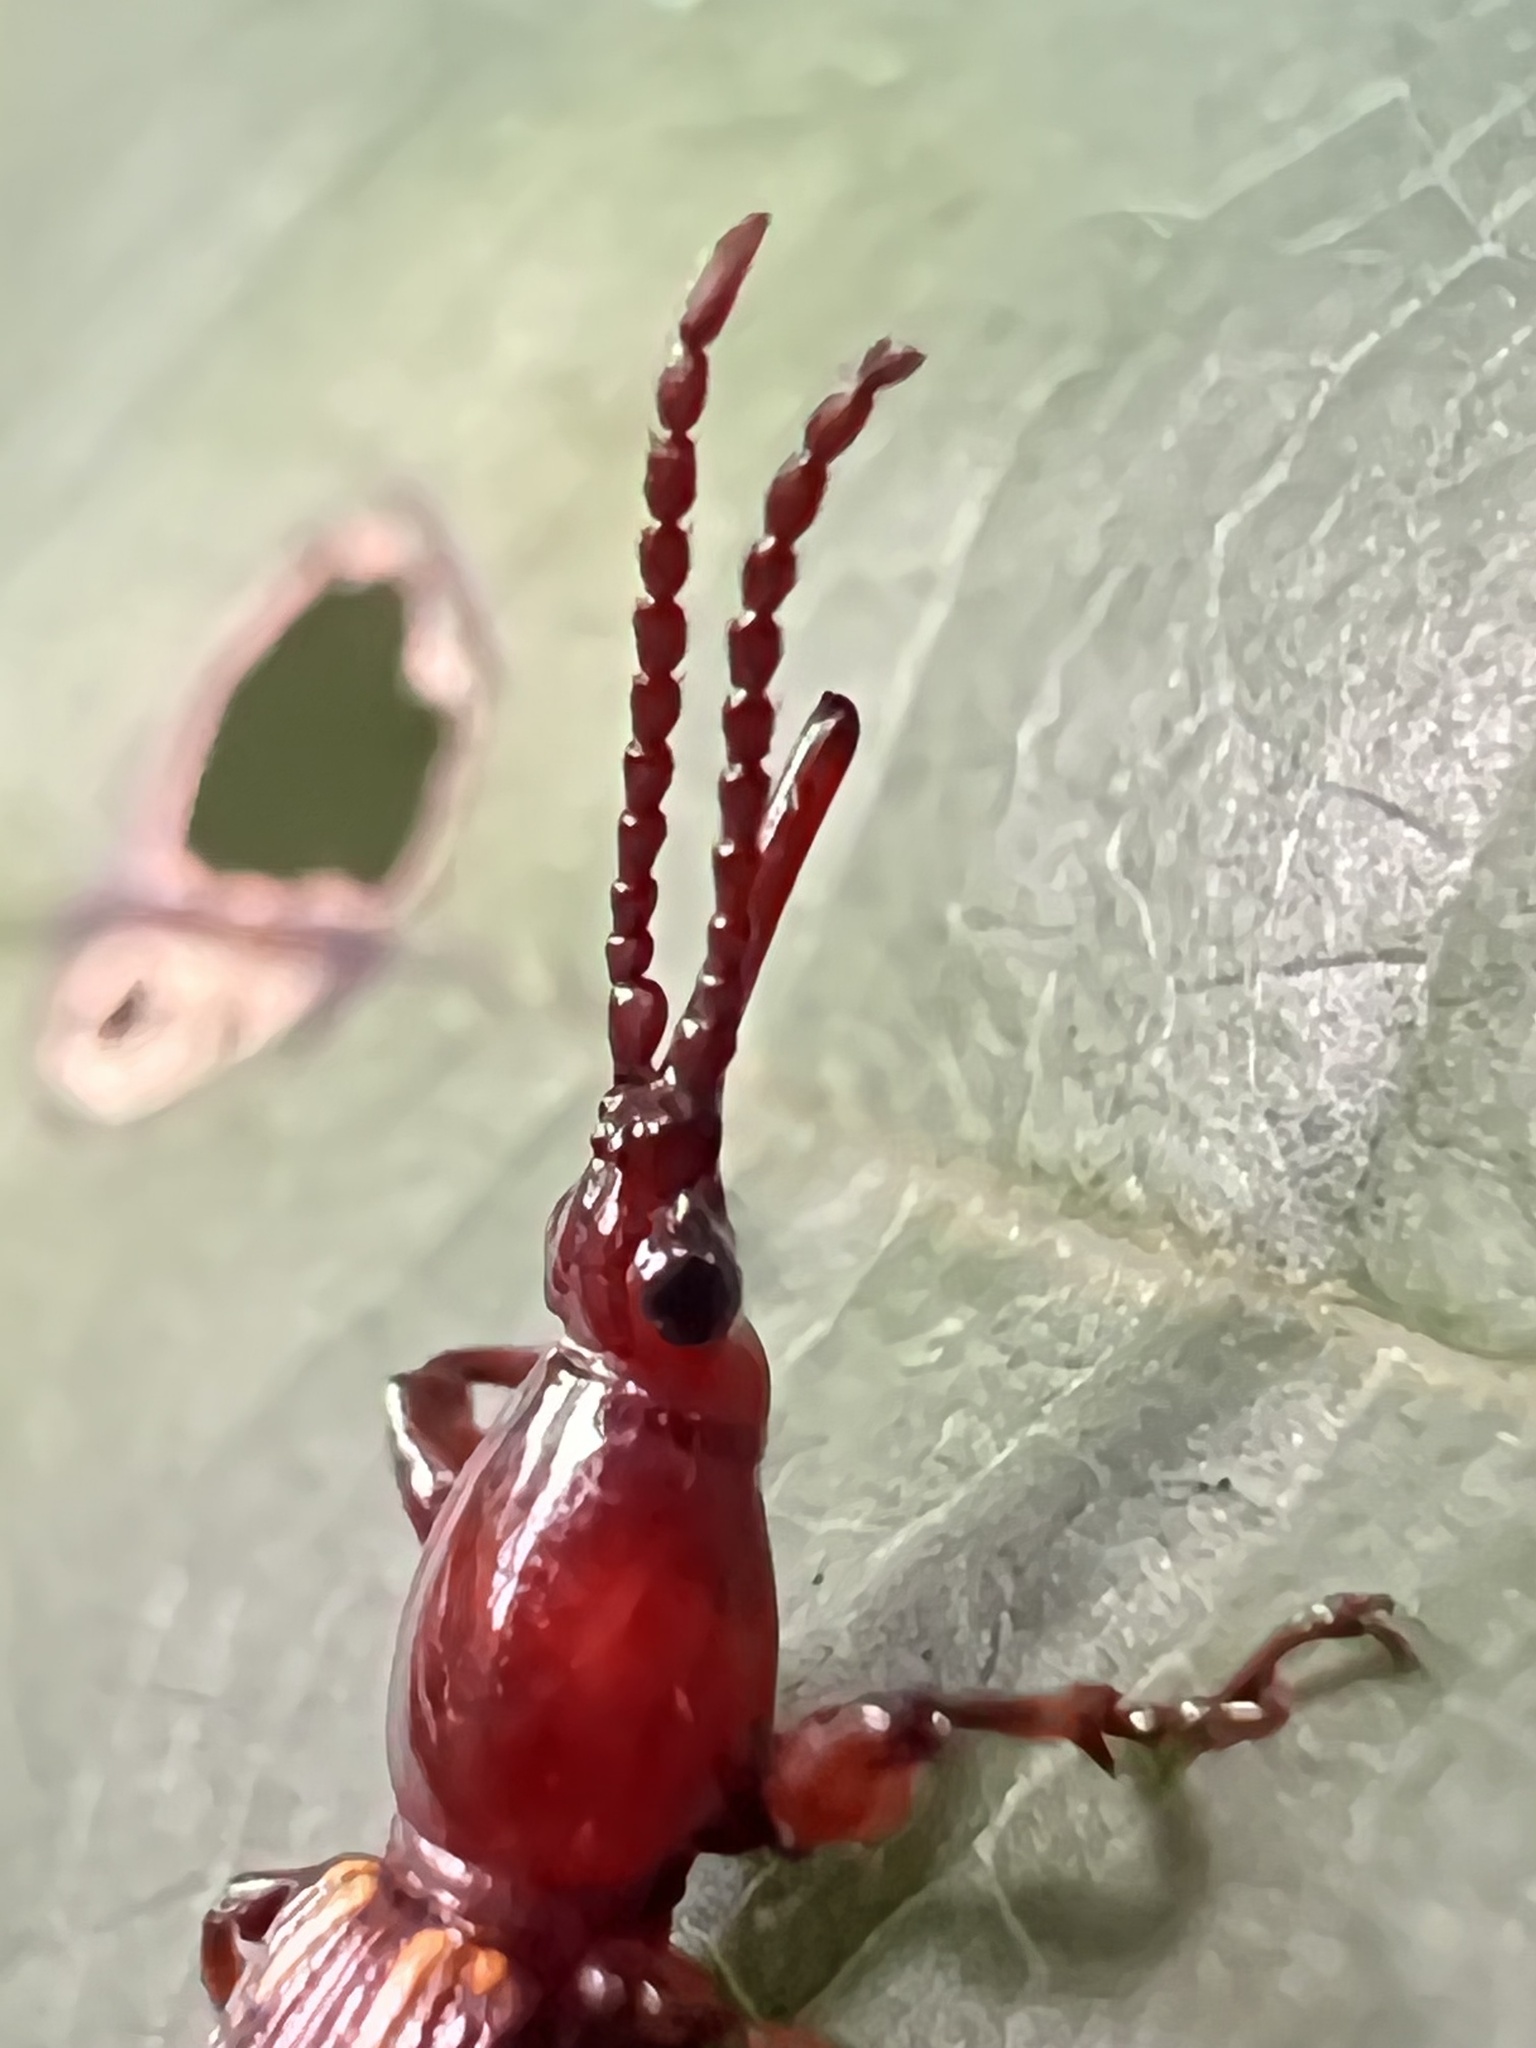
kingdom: Animalia
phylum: Arthropoda
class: Insecta
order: Coleoptera
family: Brentidae
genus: Arrenodes
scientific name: Arrenodes minutus
